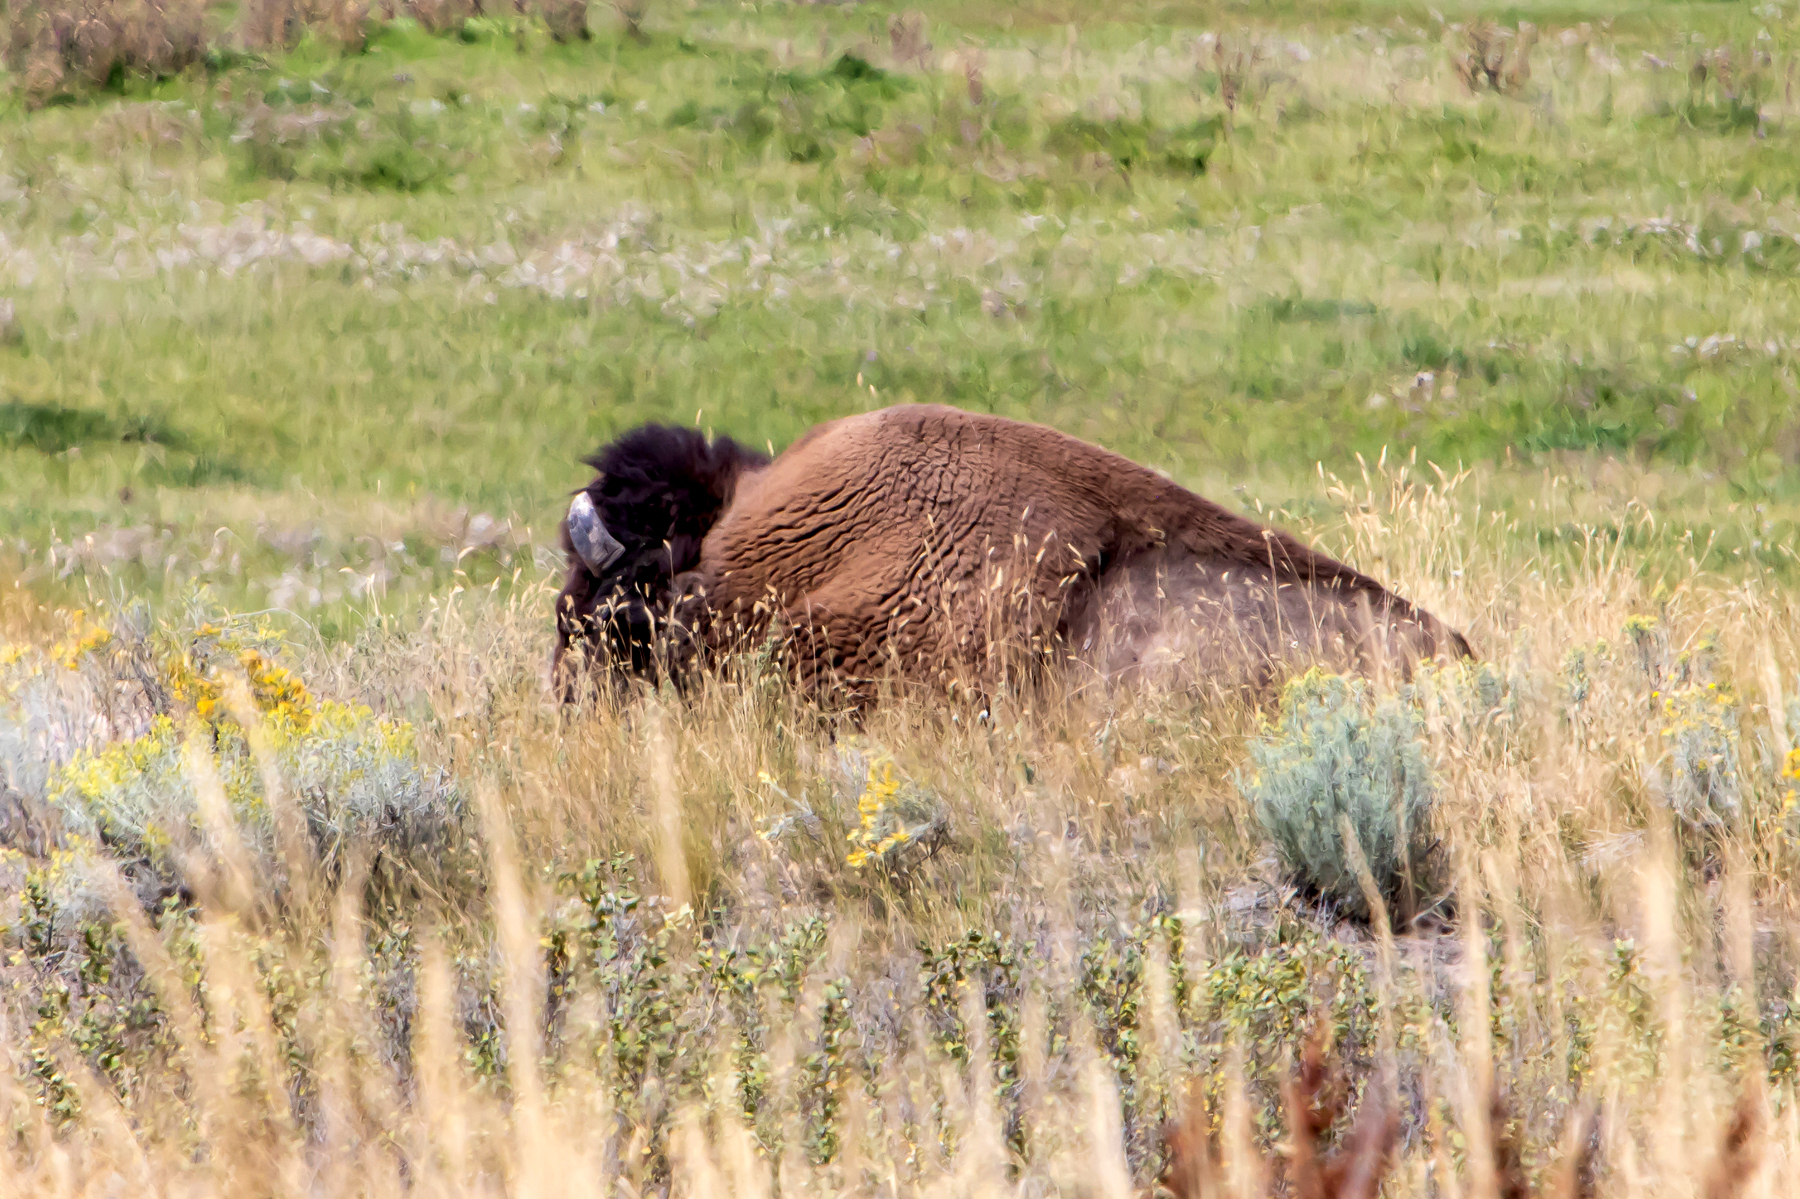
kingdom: Animalia
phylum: Chordata
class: Mammalia
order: Artiodactyla
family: Bovidae
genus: Bison
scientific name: Bison bison
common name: American bison
